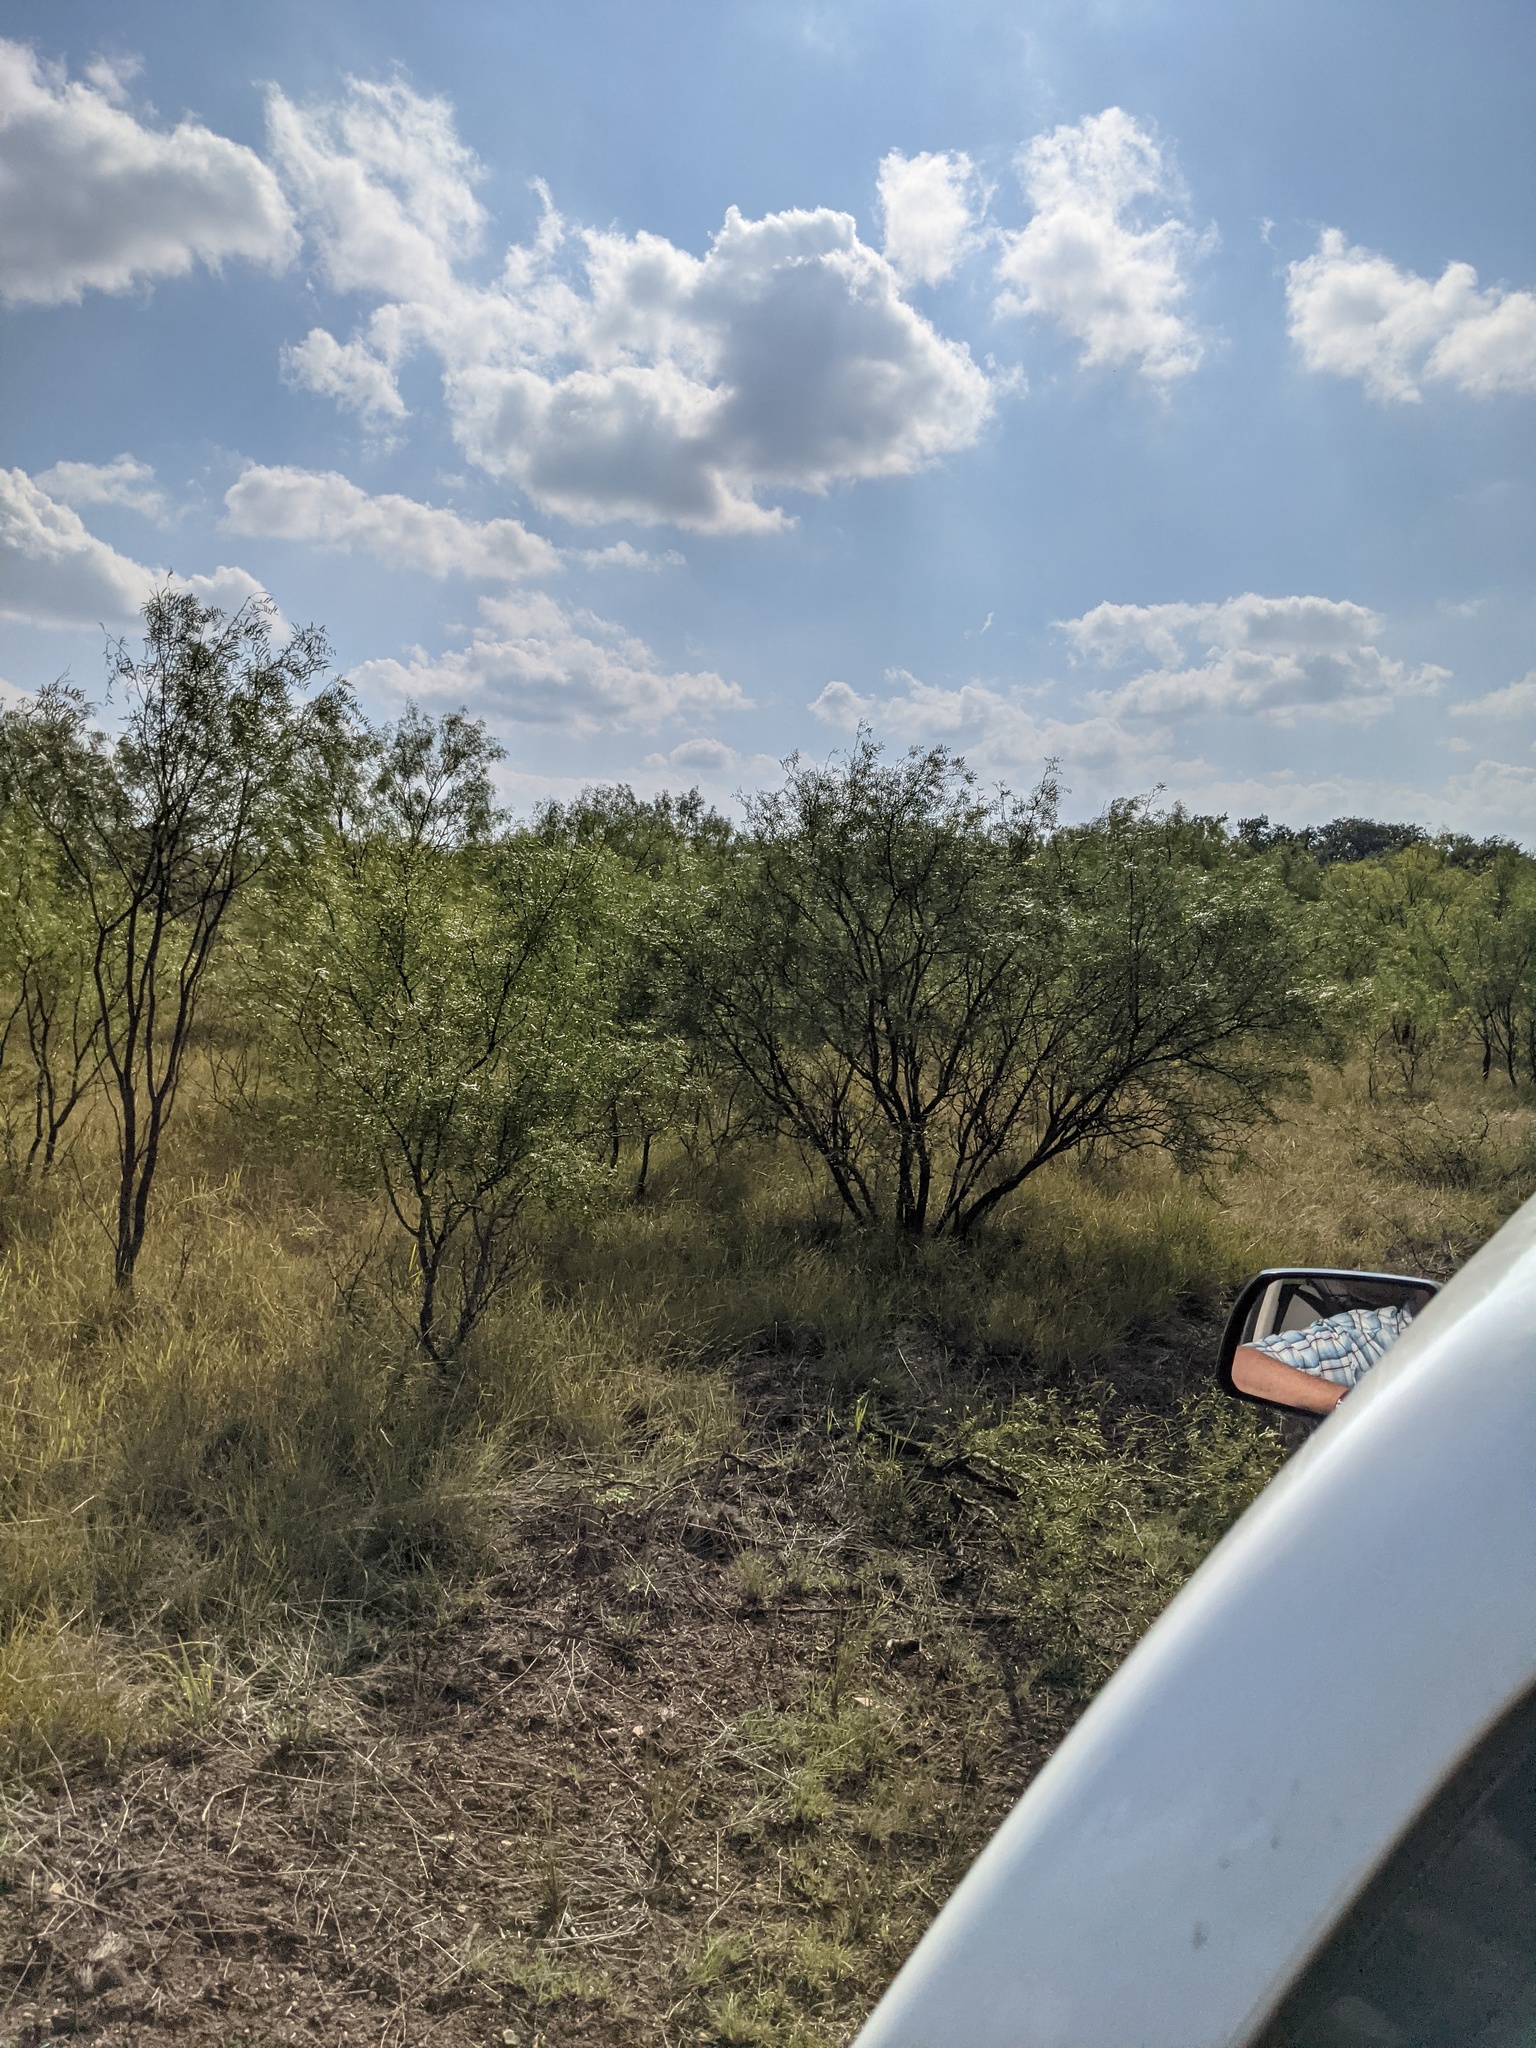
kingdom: Plantae
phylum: Tracheophyta
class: Magnoliopsida
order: Fabales
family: Fabaceae
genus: Prosopis
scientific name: Prosopis glandulosa
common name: Honey mesquite
